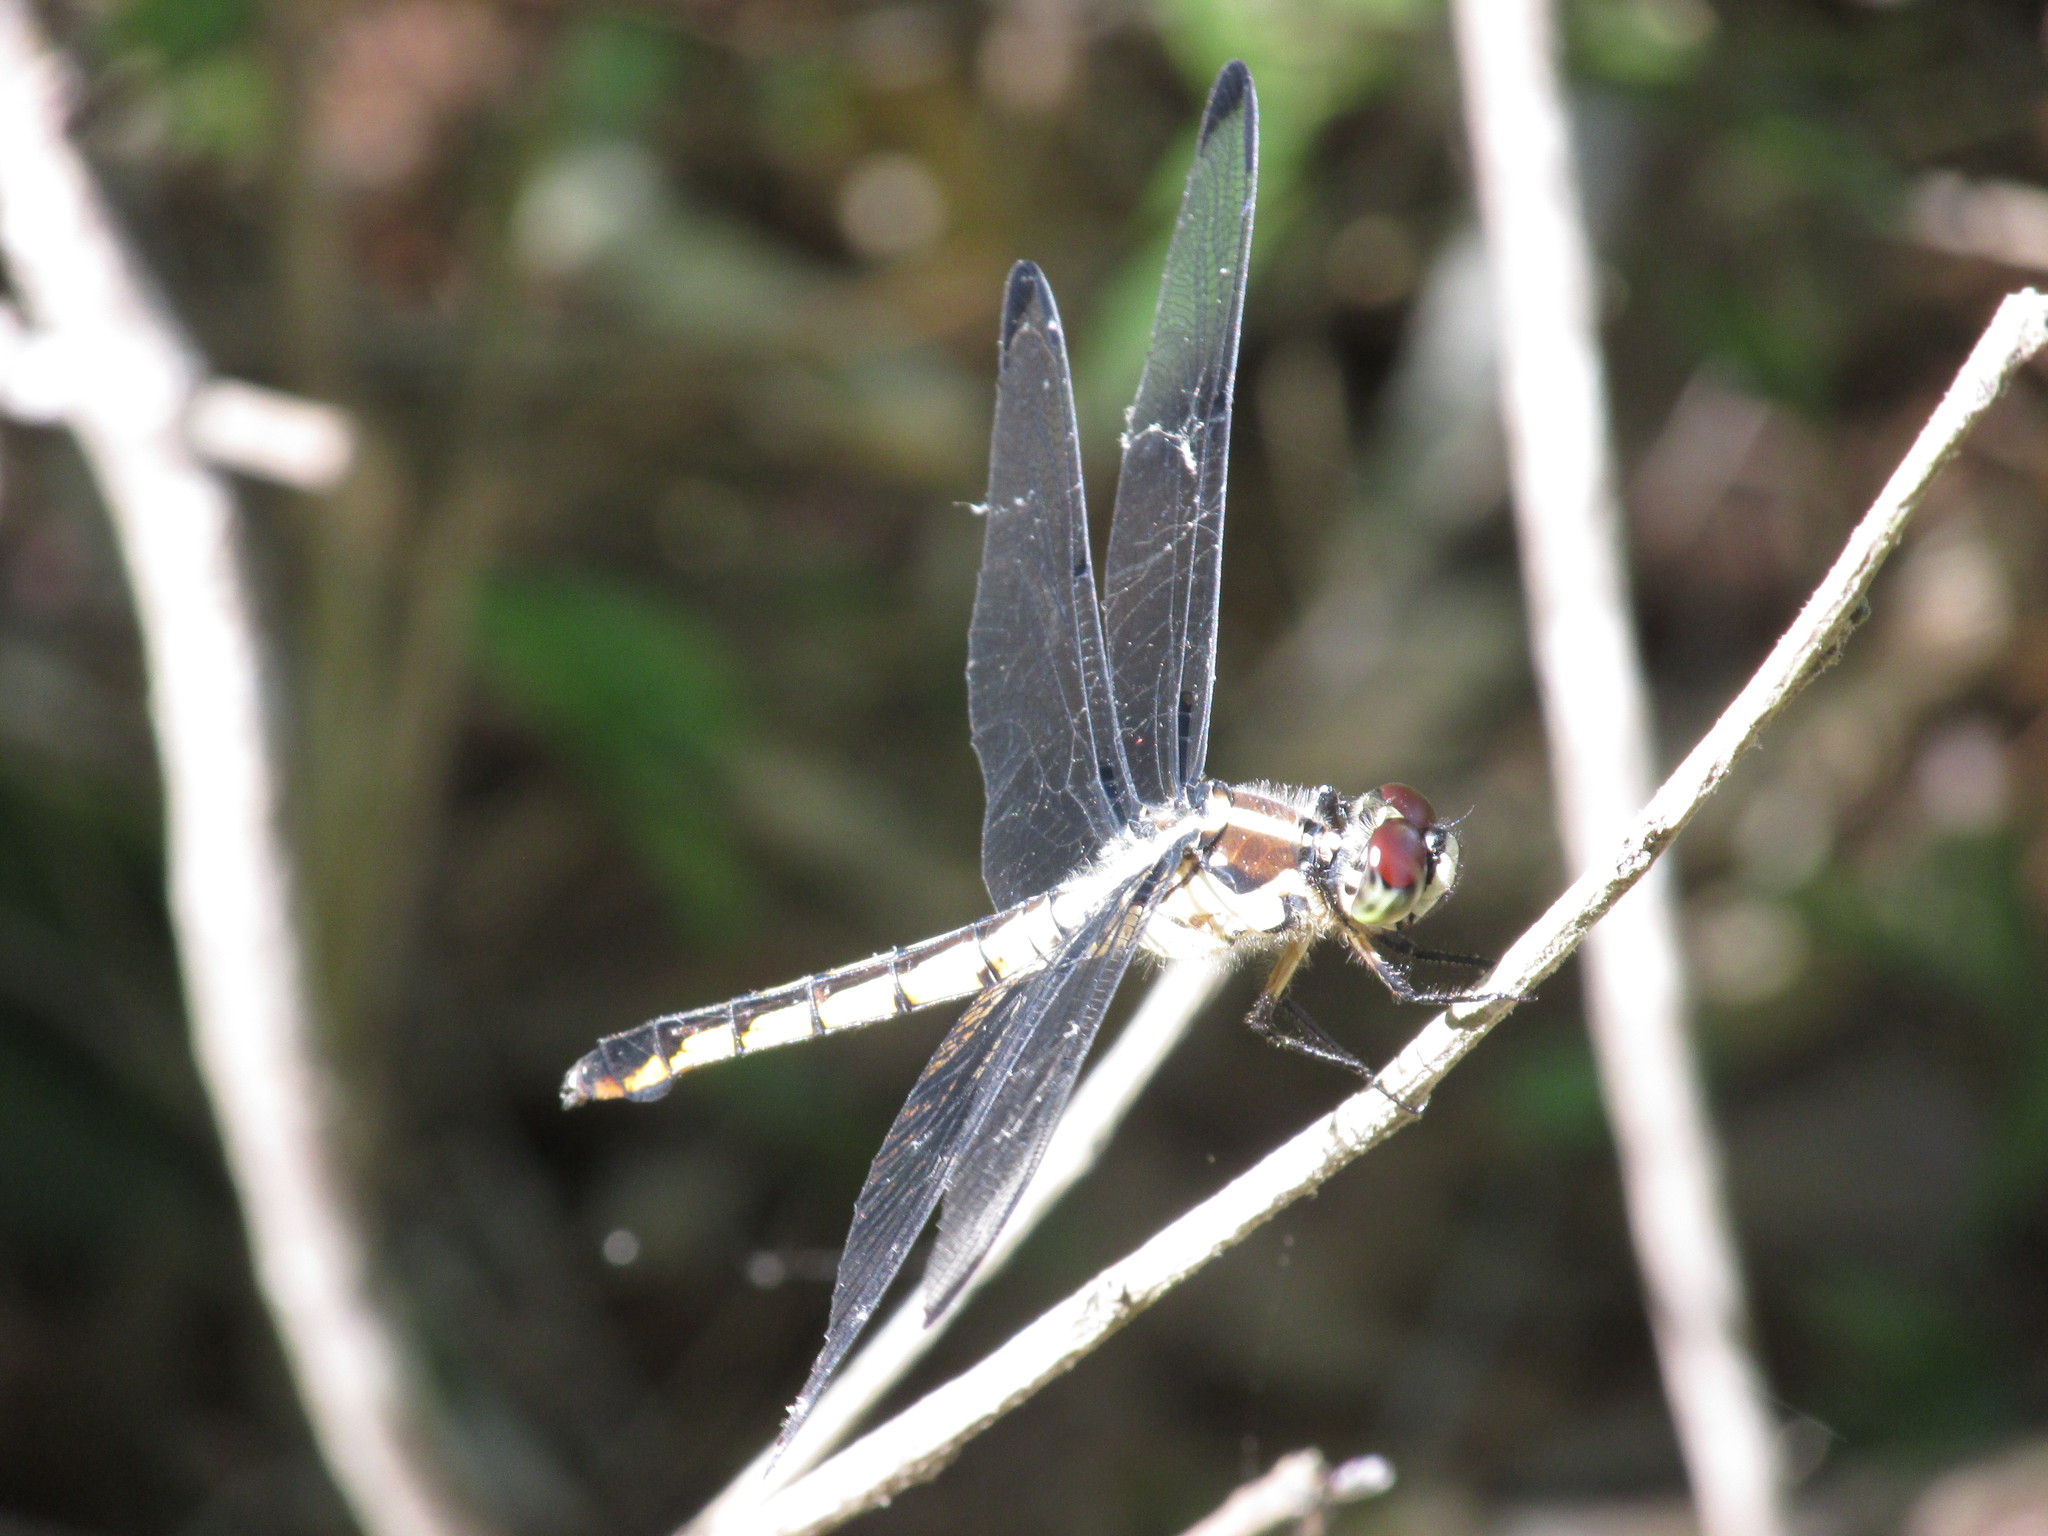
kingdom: Animalia
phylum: Arthropoda
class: Insecta
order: Odonata
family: Libellulidae
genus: Libellula
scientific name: Libellula vibrans
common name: Great blue skimmer
